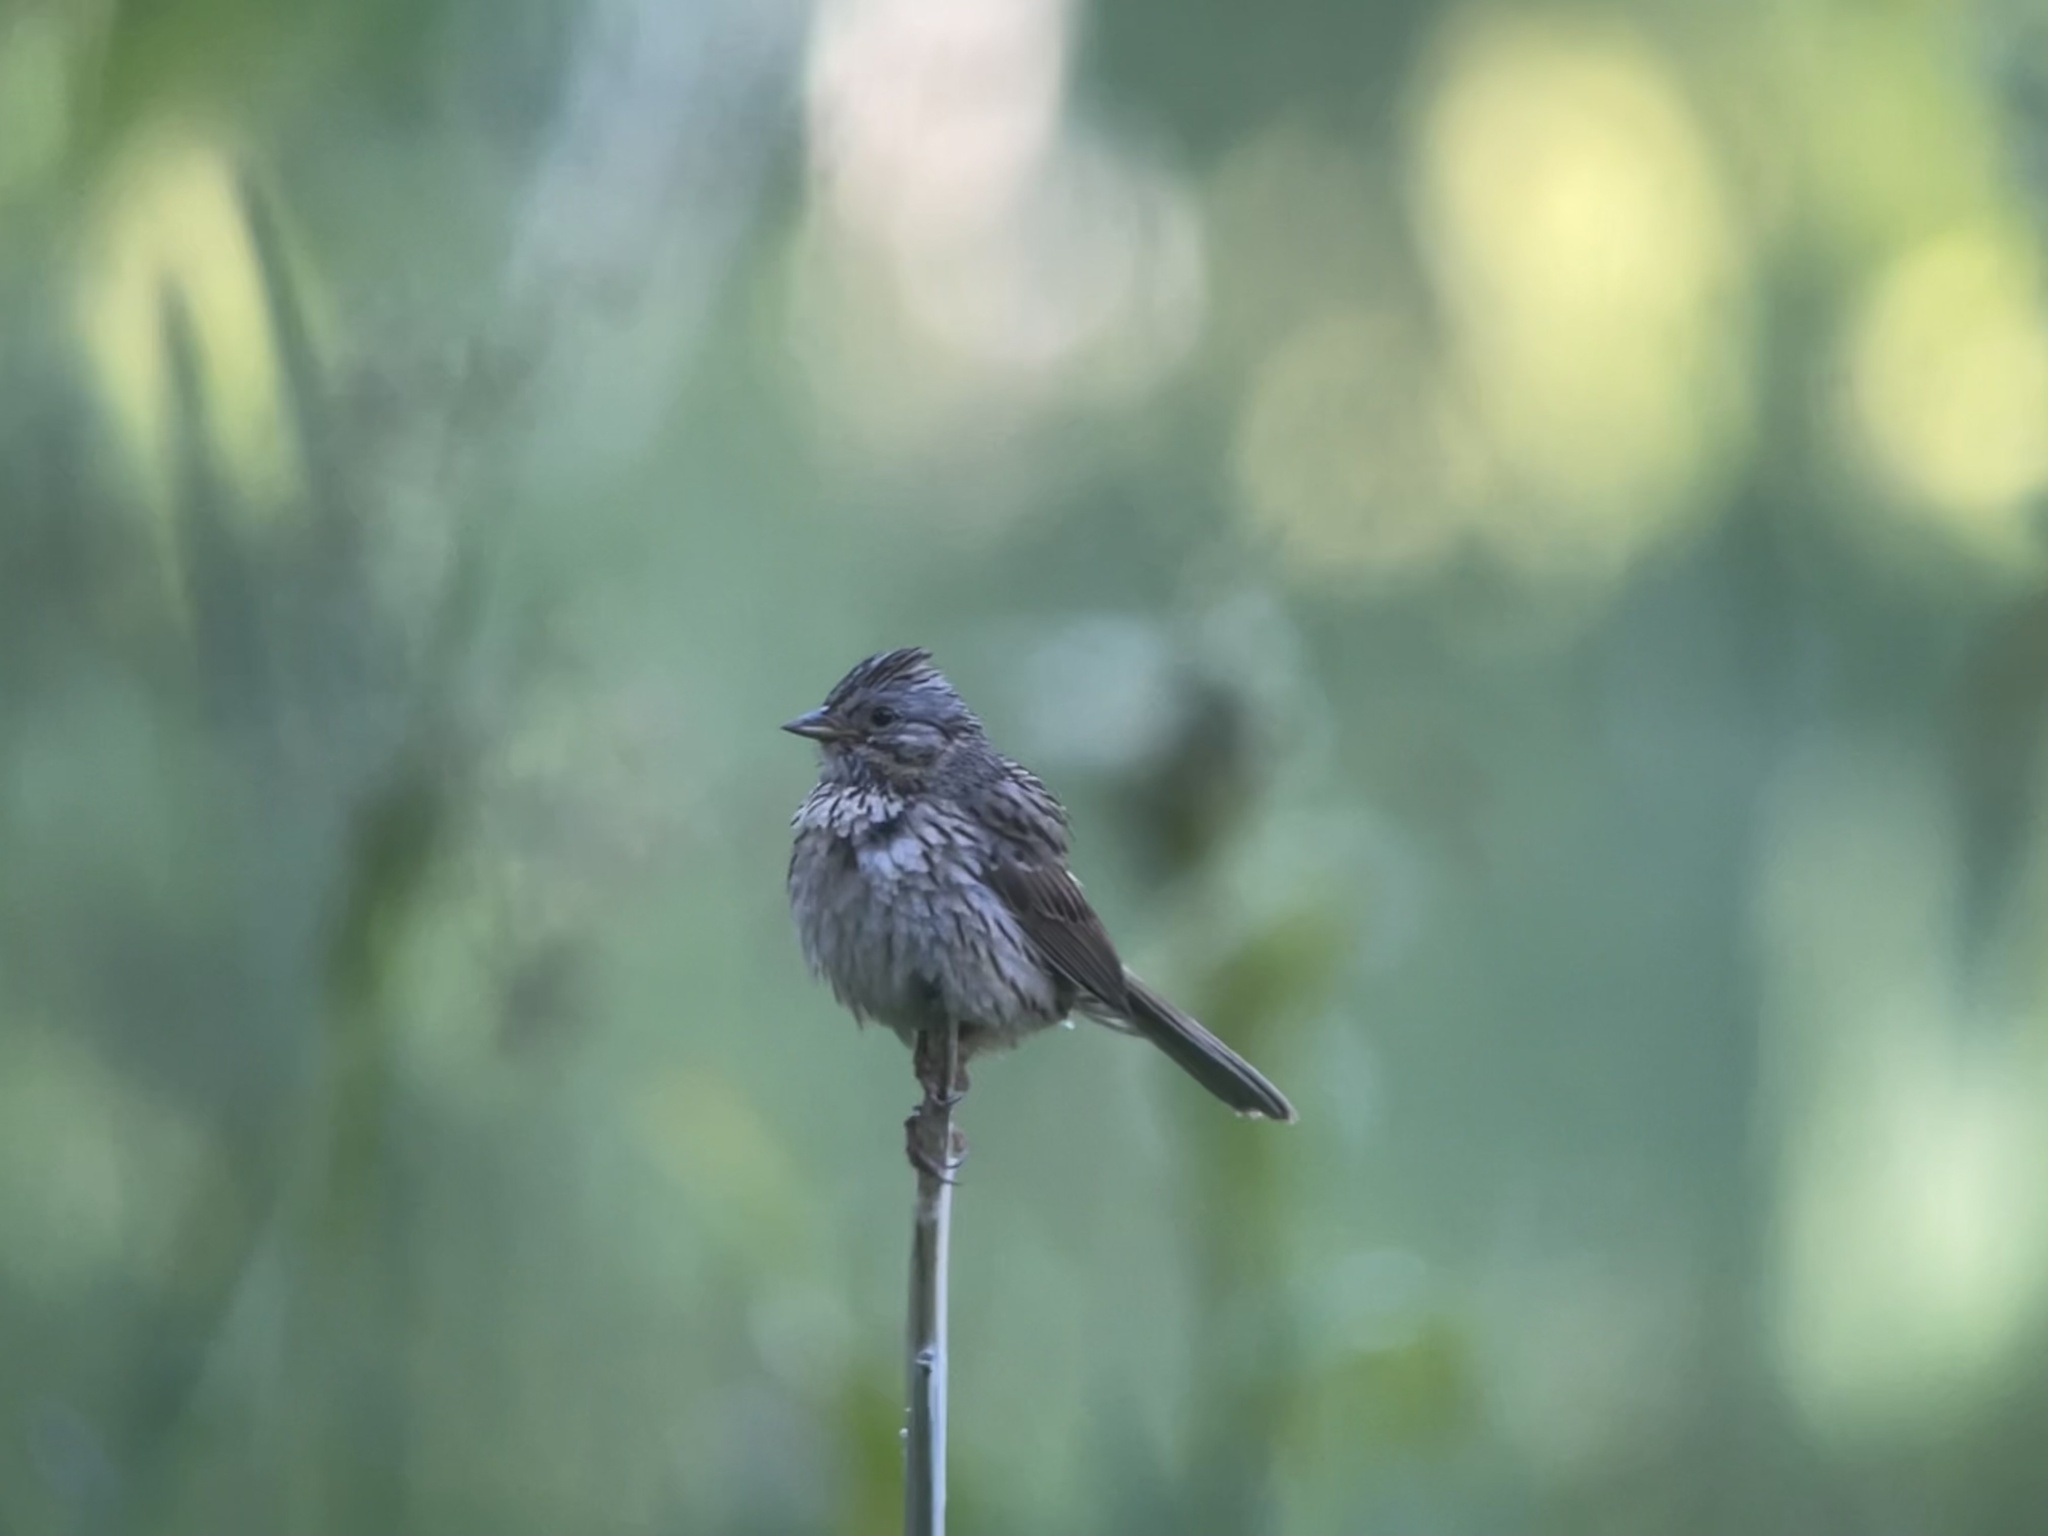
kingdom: Animalia
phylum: Chordata
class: Aves
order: Passeriformes
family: Passerellidae
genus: Melospiza
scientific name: Melospiza lincolnii
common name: Lincoln's sparrow
